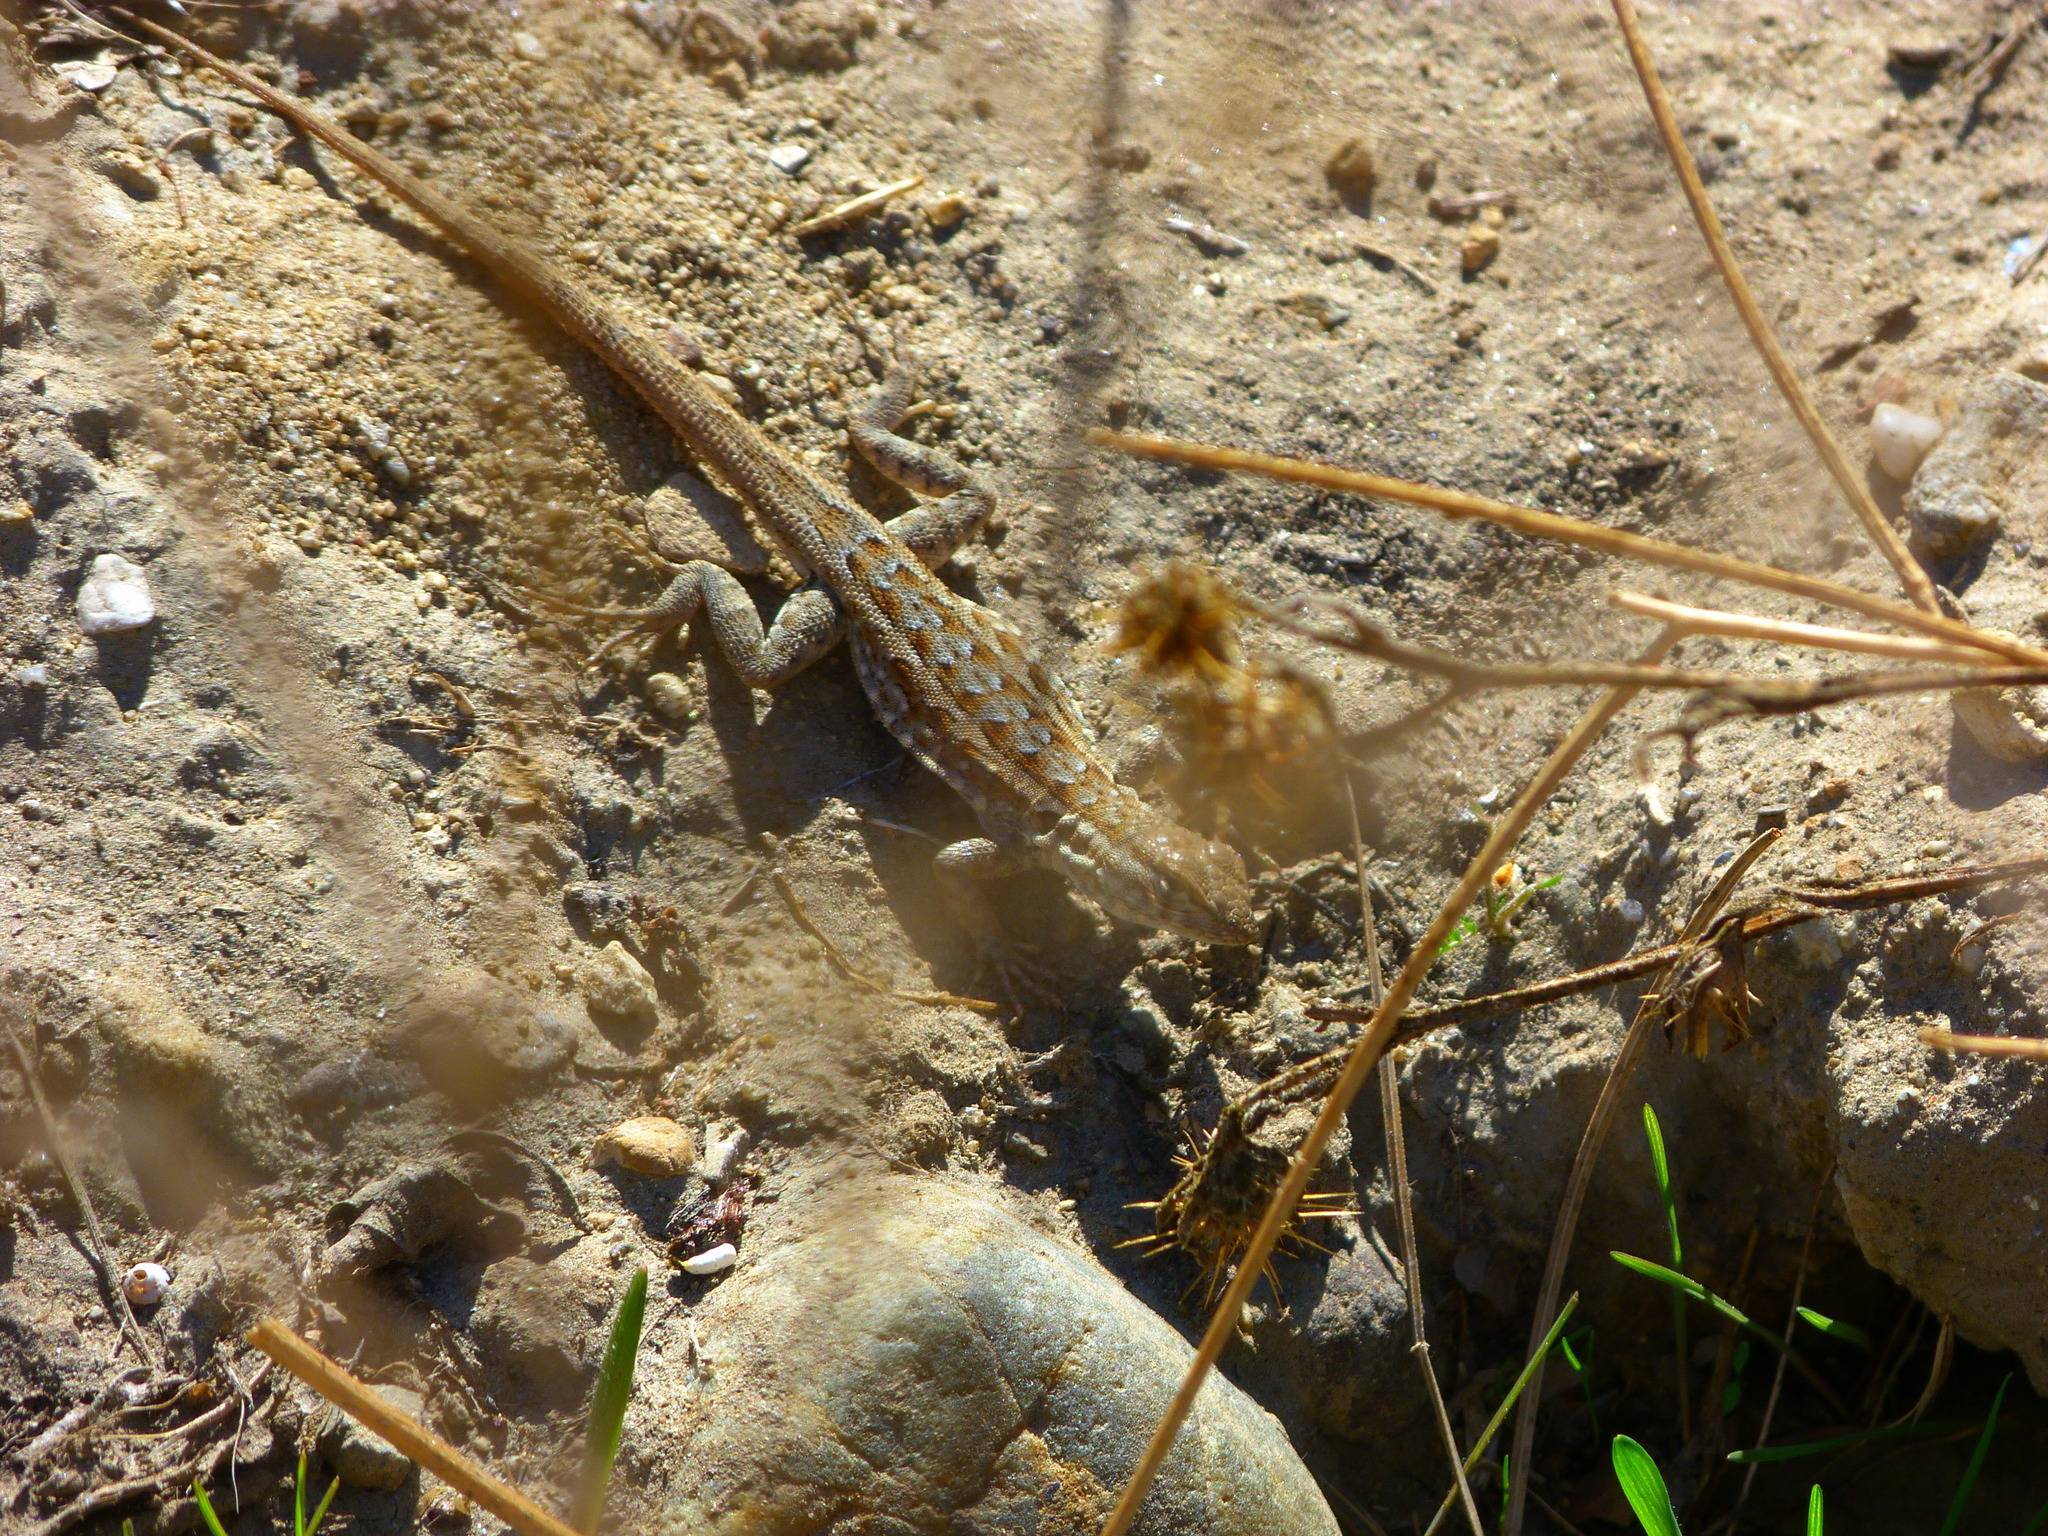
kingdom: Animalia
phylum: Chordata
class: Squamata
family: Phrynosomatidae
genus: Uta
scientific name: Uta stansburiana
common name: Side-blotched lizard
